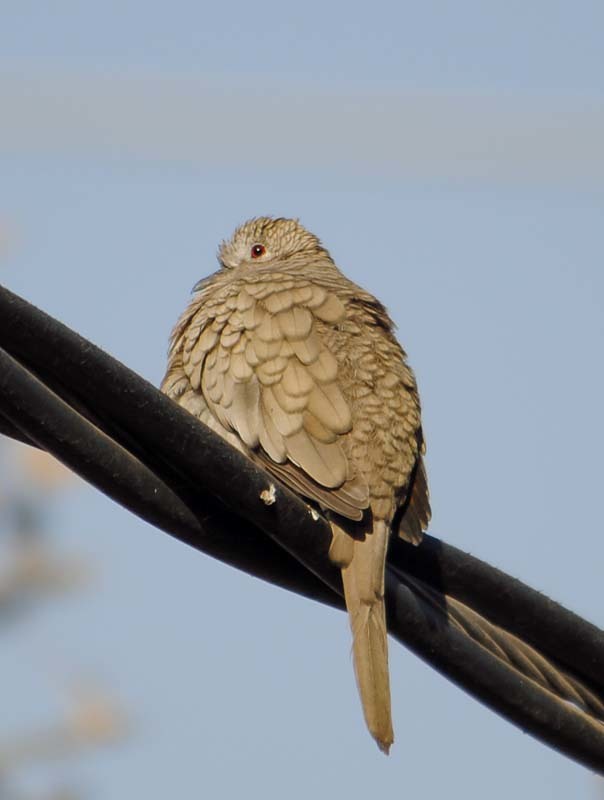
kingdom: Animalia
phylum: Chordata
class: Aves
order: Columbiformes
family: Columbidae
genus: Columbina
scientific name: Columbina inca
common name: Inca dove
